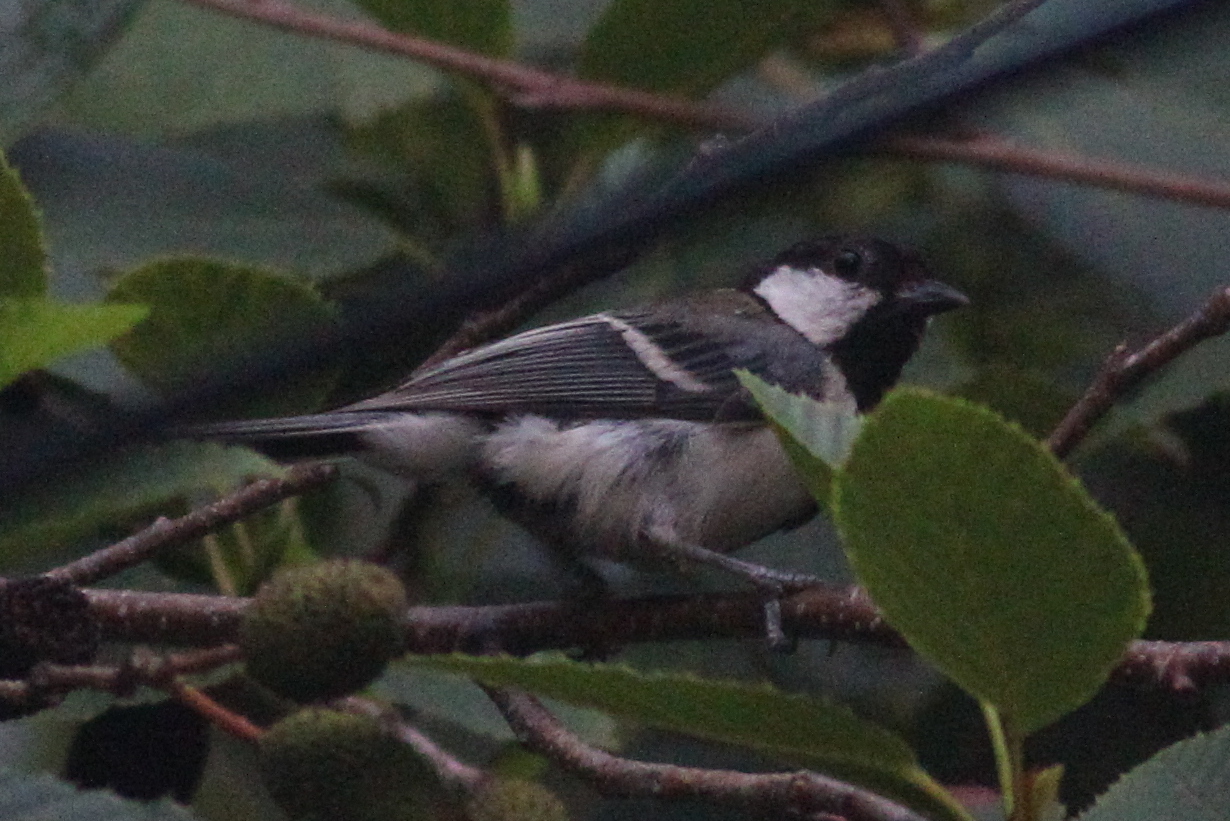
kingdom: Animalia
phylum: Chordata
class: Aves
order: Passeriformes
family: Paridae
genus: Parus
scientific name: Parus minor
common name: Japanese tit
